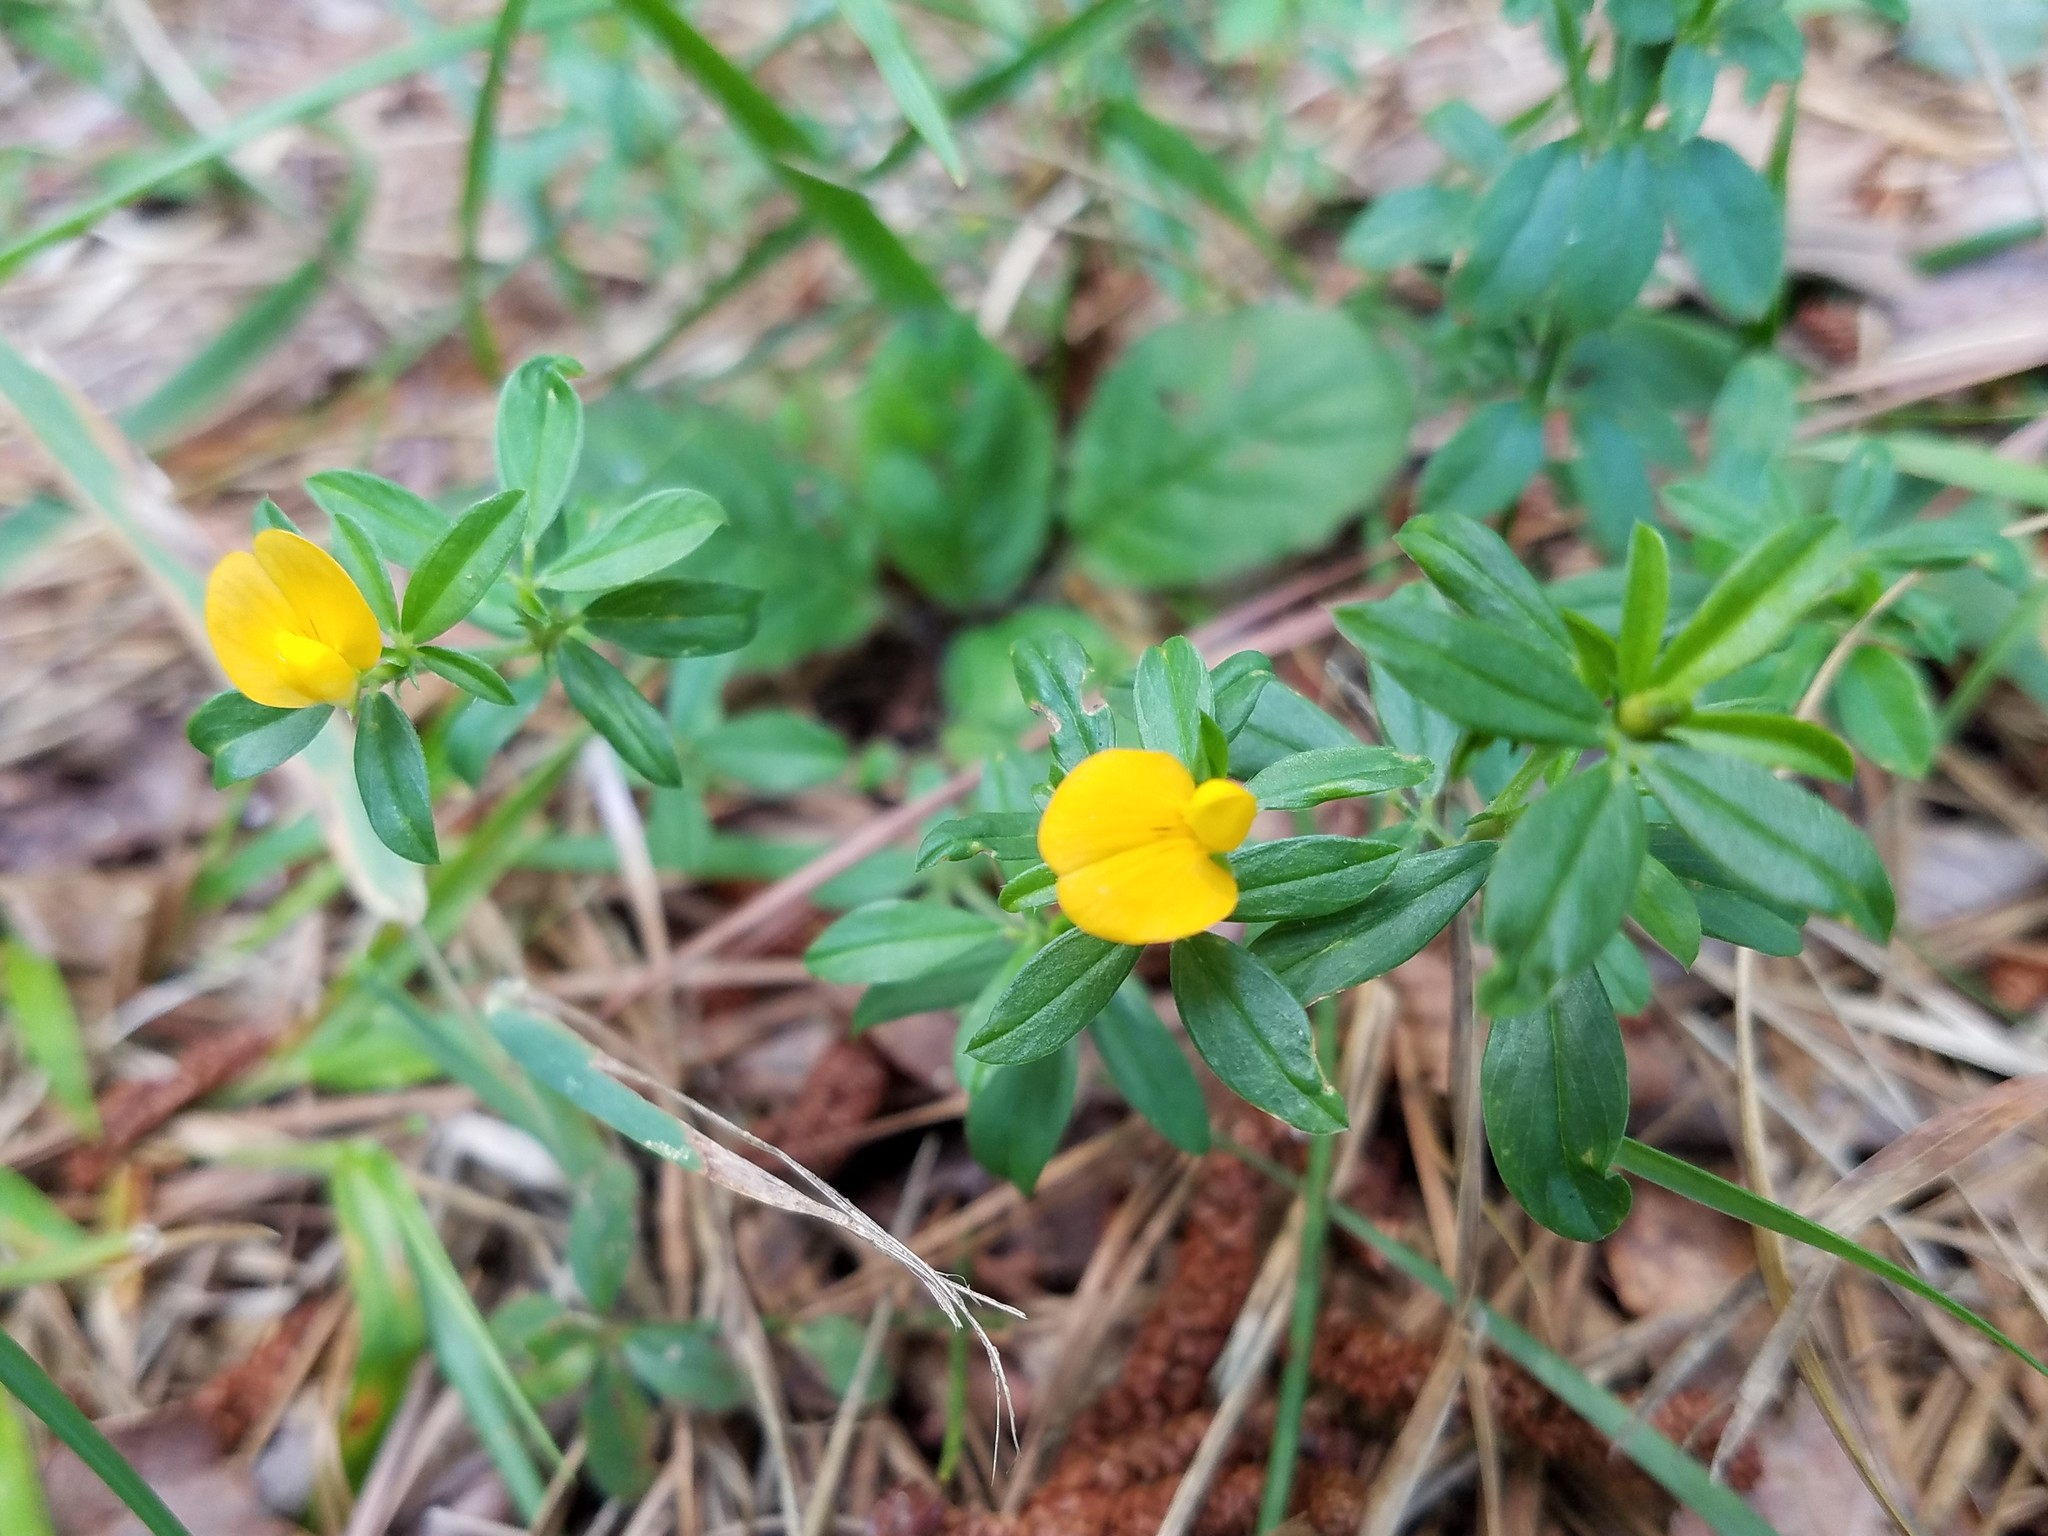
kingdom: Plantae
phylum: Tracheophyta
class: Magnoliopsida
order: Fabales
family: Fabaceae
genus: Stylosanthes
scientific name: Stylosanthes biflora
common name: Two-flower pencil-flower
